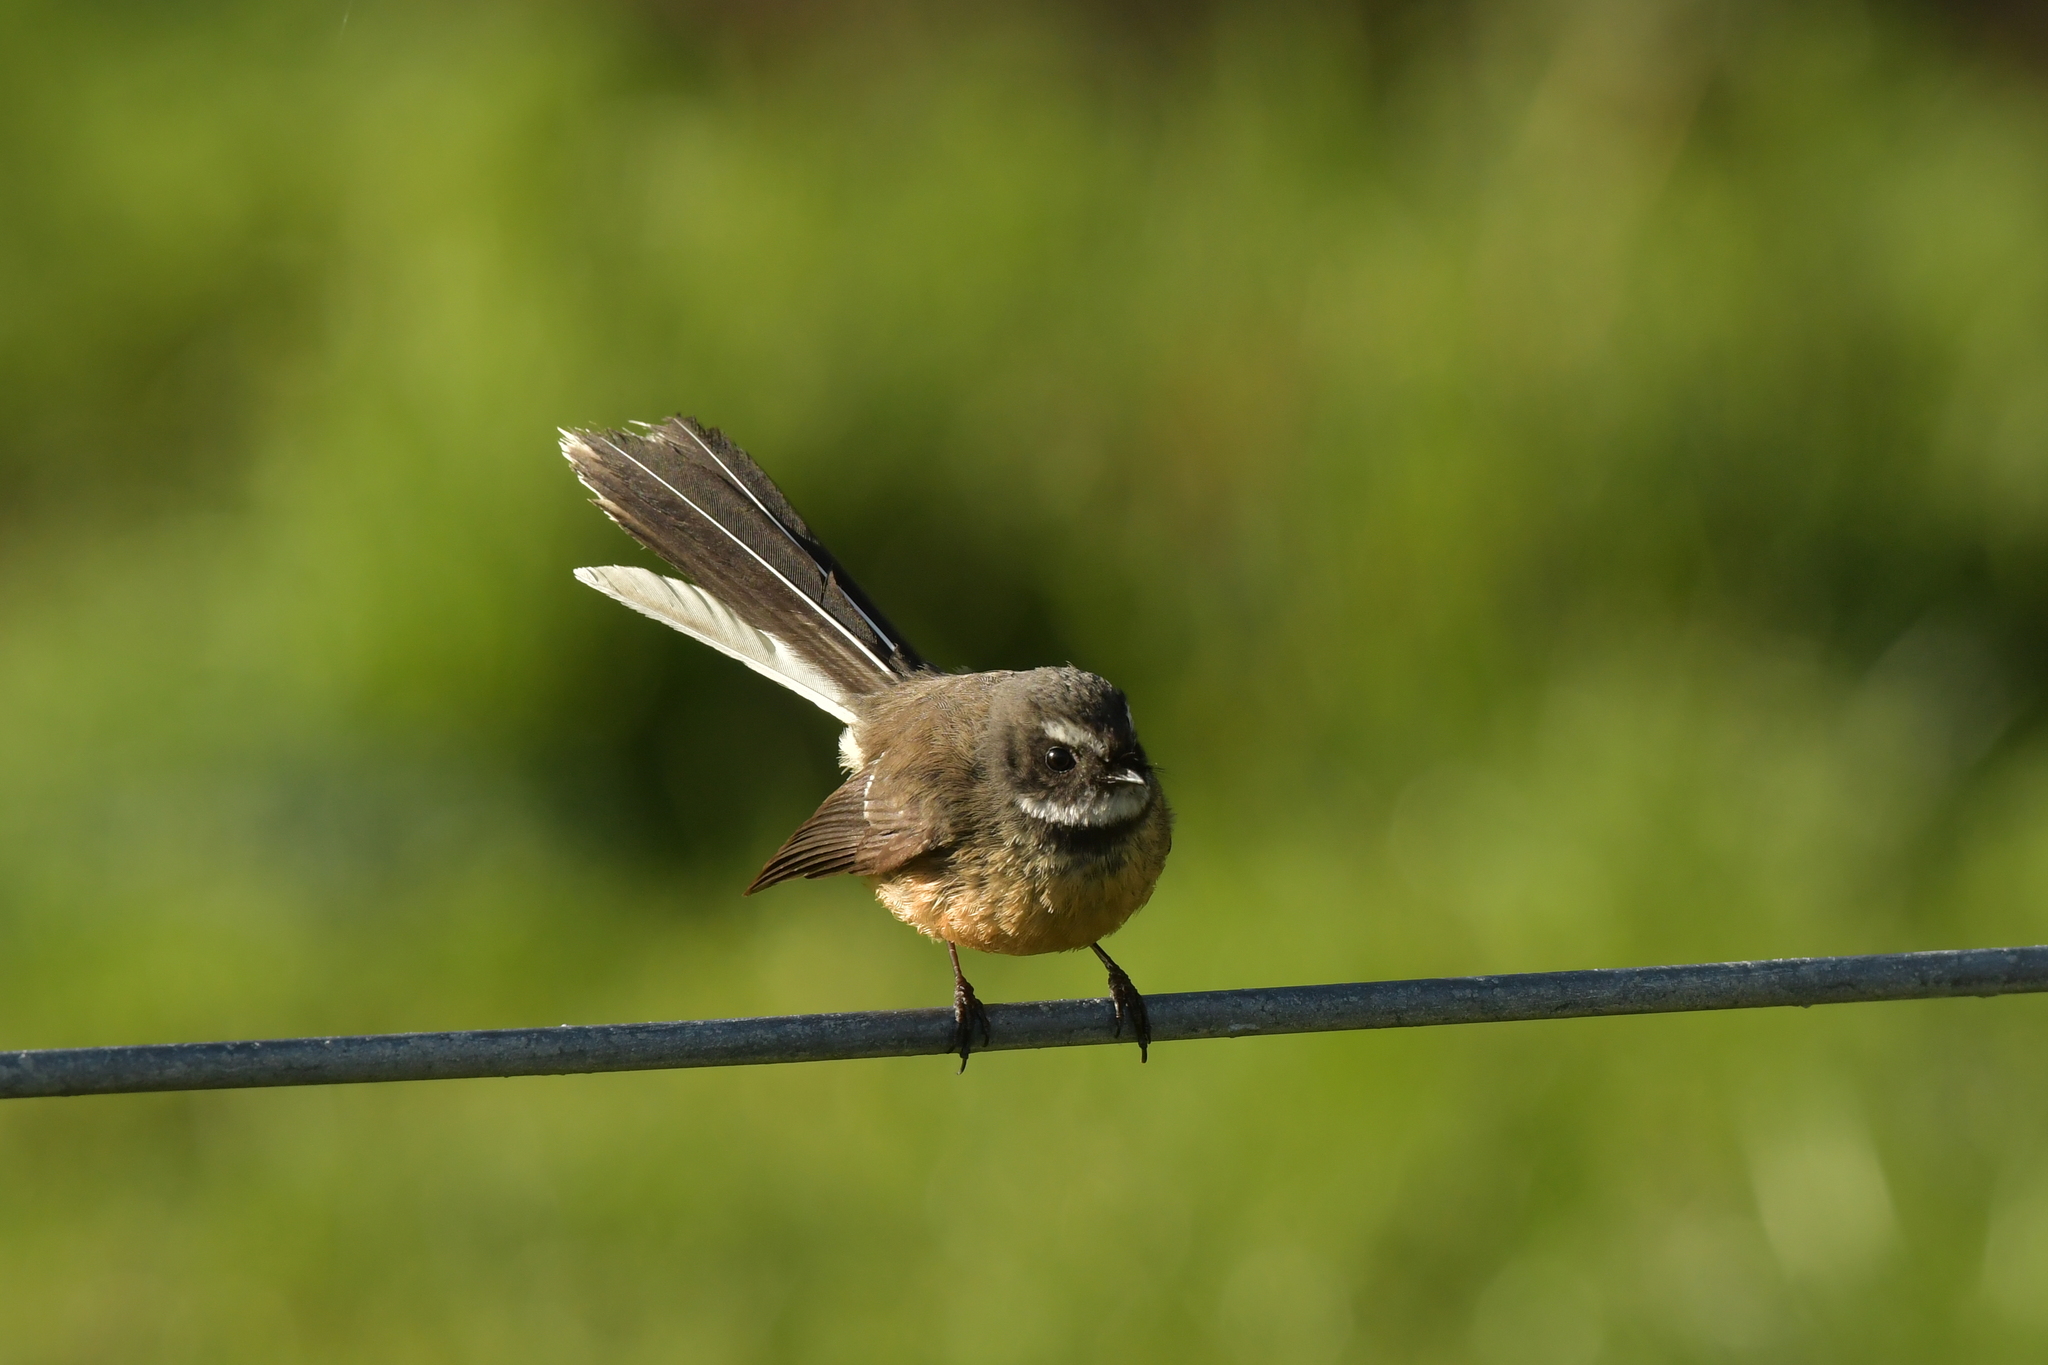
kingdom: Animalia
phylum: Chordata
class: Aves
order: Passeriformes
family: Rhipiduridae
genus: Rhipidura
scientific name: Rhipidura fuliginosa
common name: New zealand fantail
